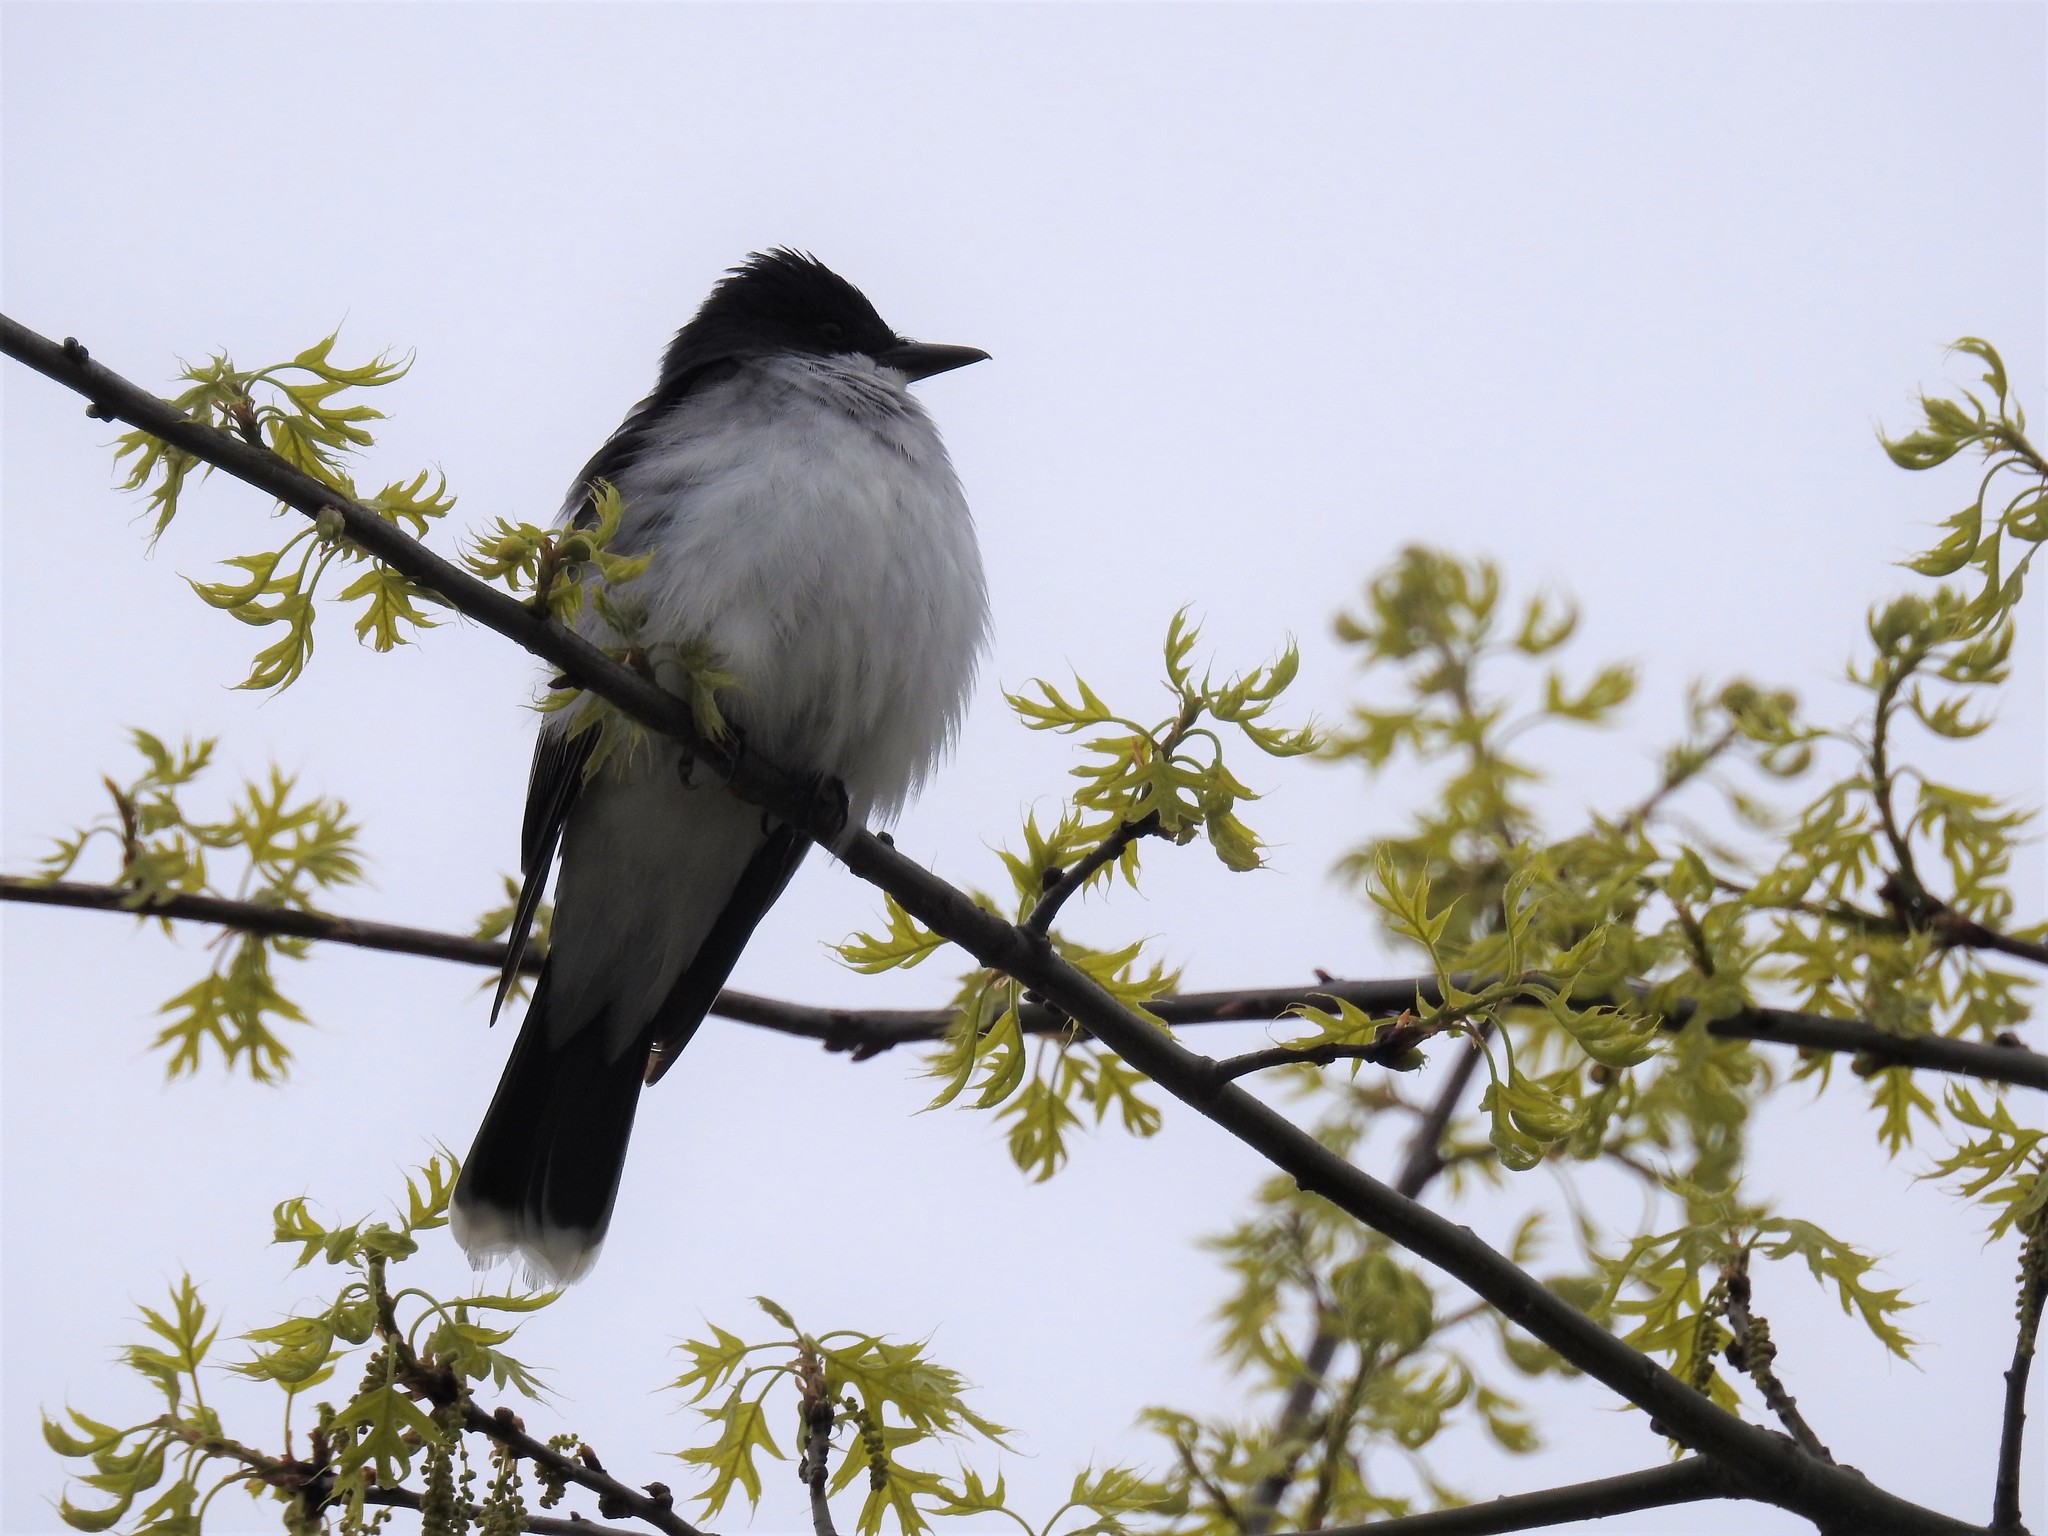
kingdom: Animalia
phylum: Chordata
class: Aves
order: Passeriformes
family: Tyrannidae
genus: Tyrannus
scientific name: Tyrannus tyrannus
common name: Eastern kingbird
